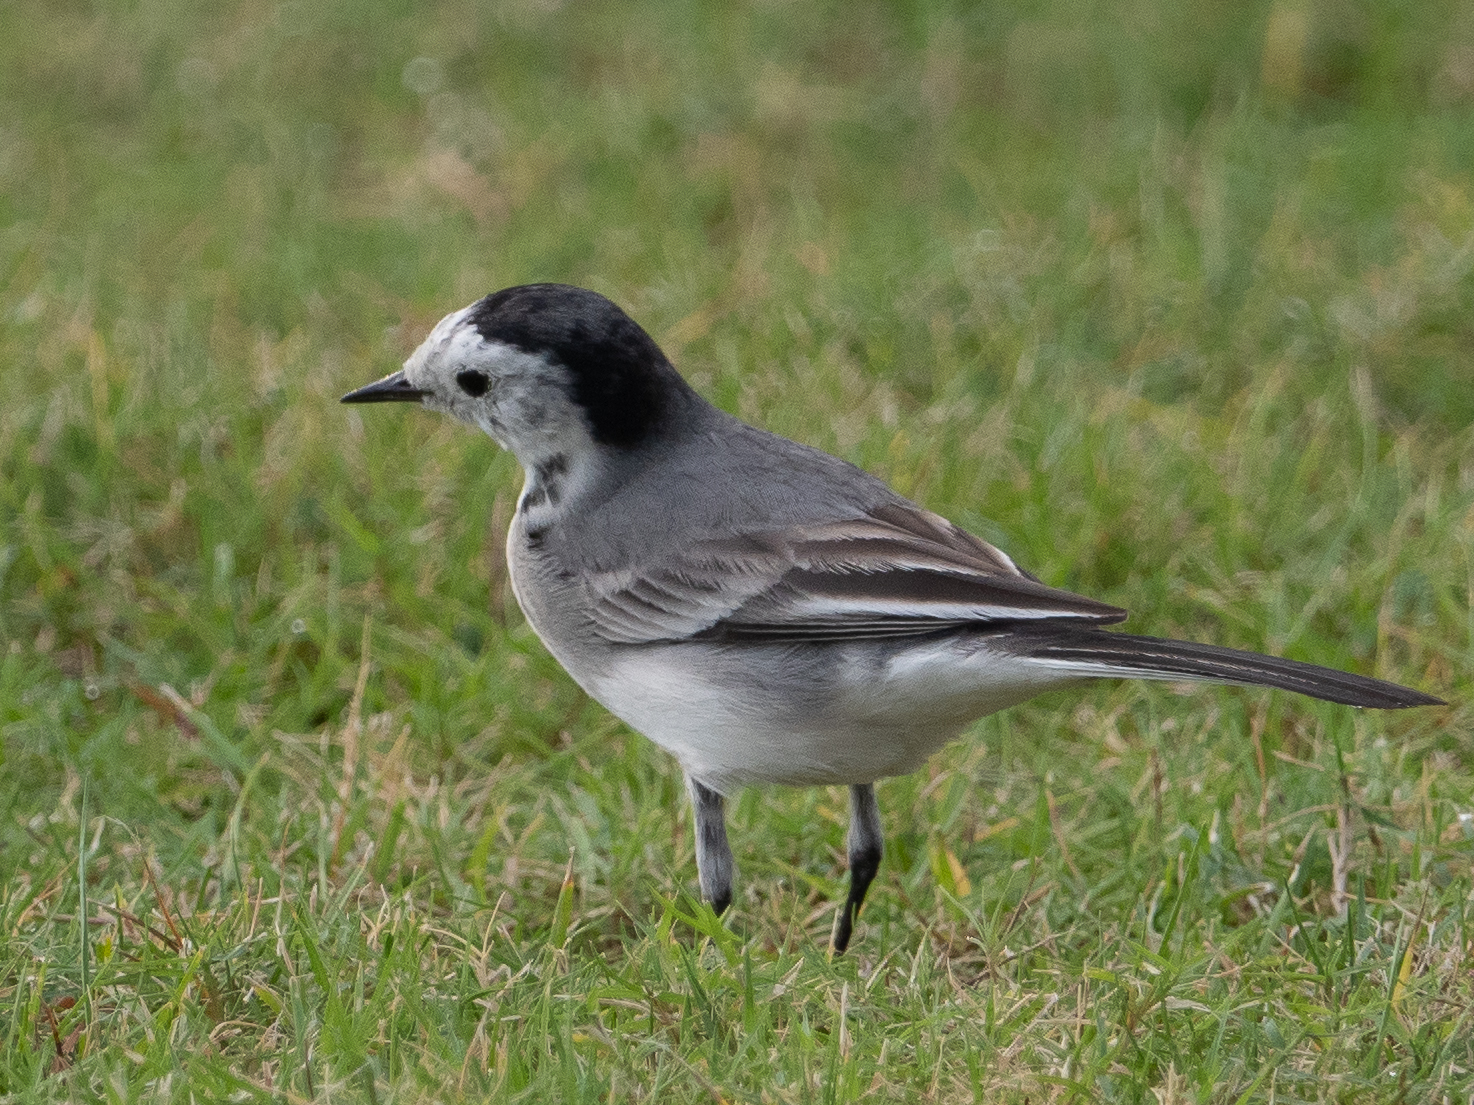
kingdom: Animalia
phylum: Chordata
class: Aves
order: Passeriformes
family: Motacillidae
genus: Motacilla
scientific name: Motacilla alba
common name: White wagtail
